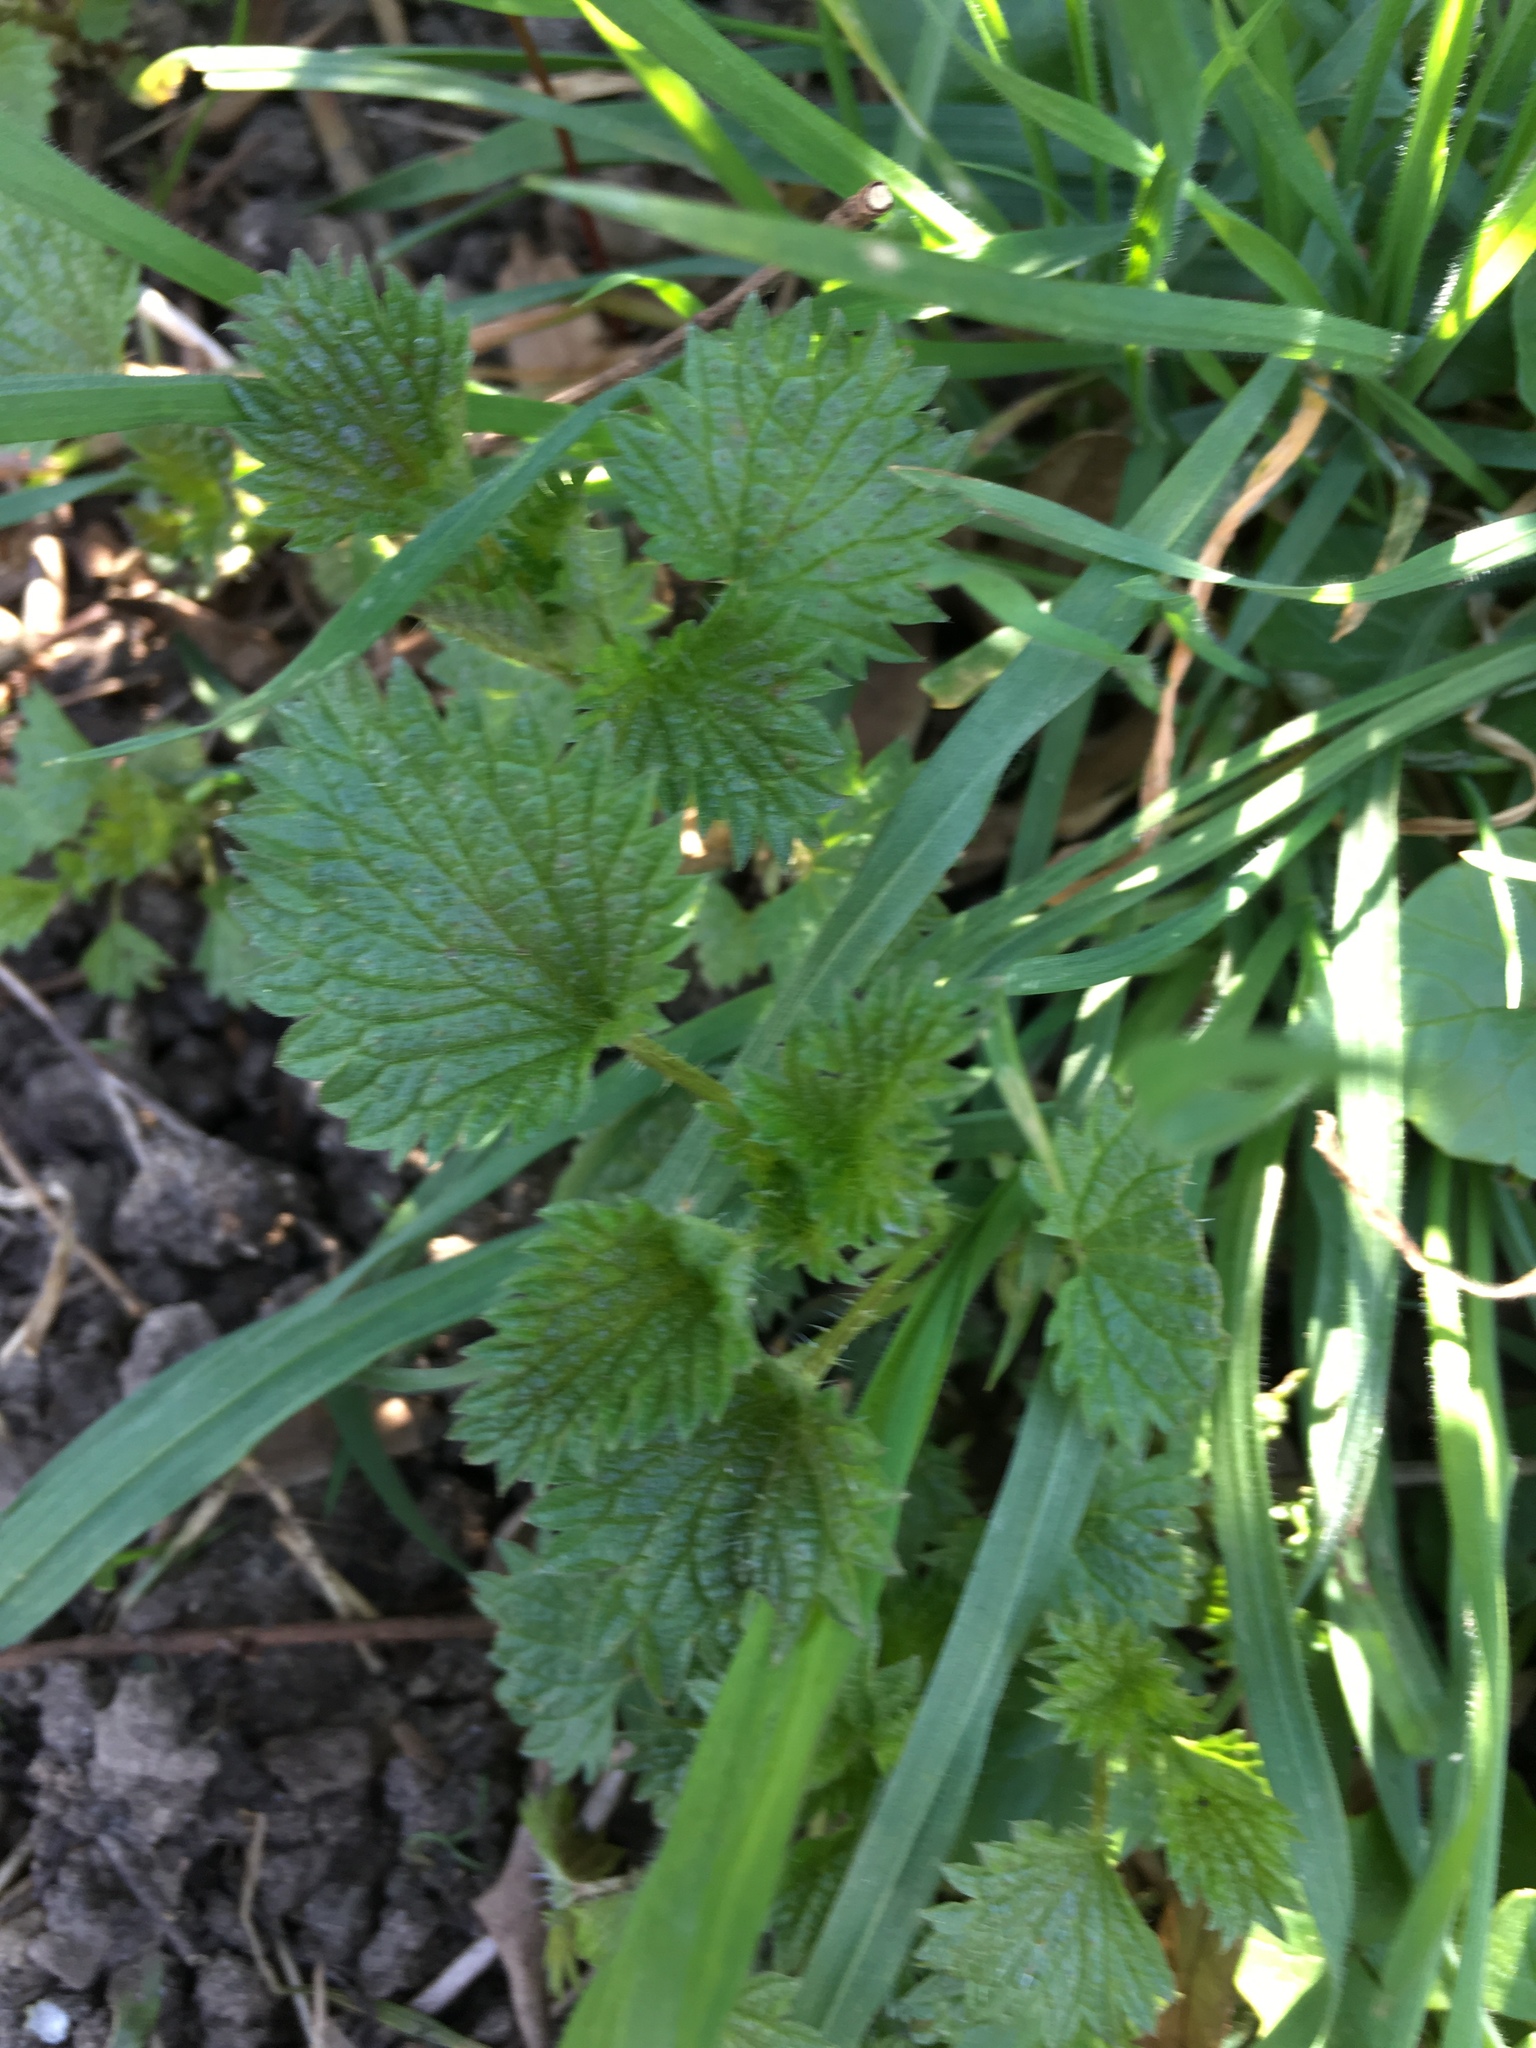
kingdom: Plantae
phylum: Tracheophyta
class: Magnoliopsida
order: Rosales
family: Urticaceae
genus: Urtica
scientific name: Urtica dioica
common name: Common nettle
